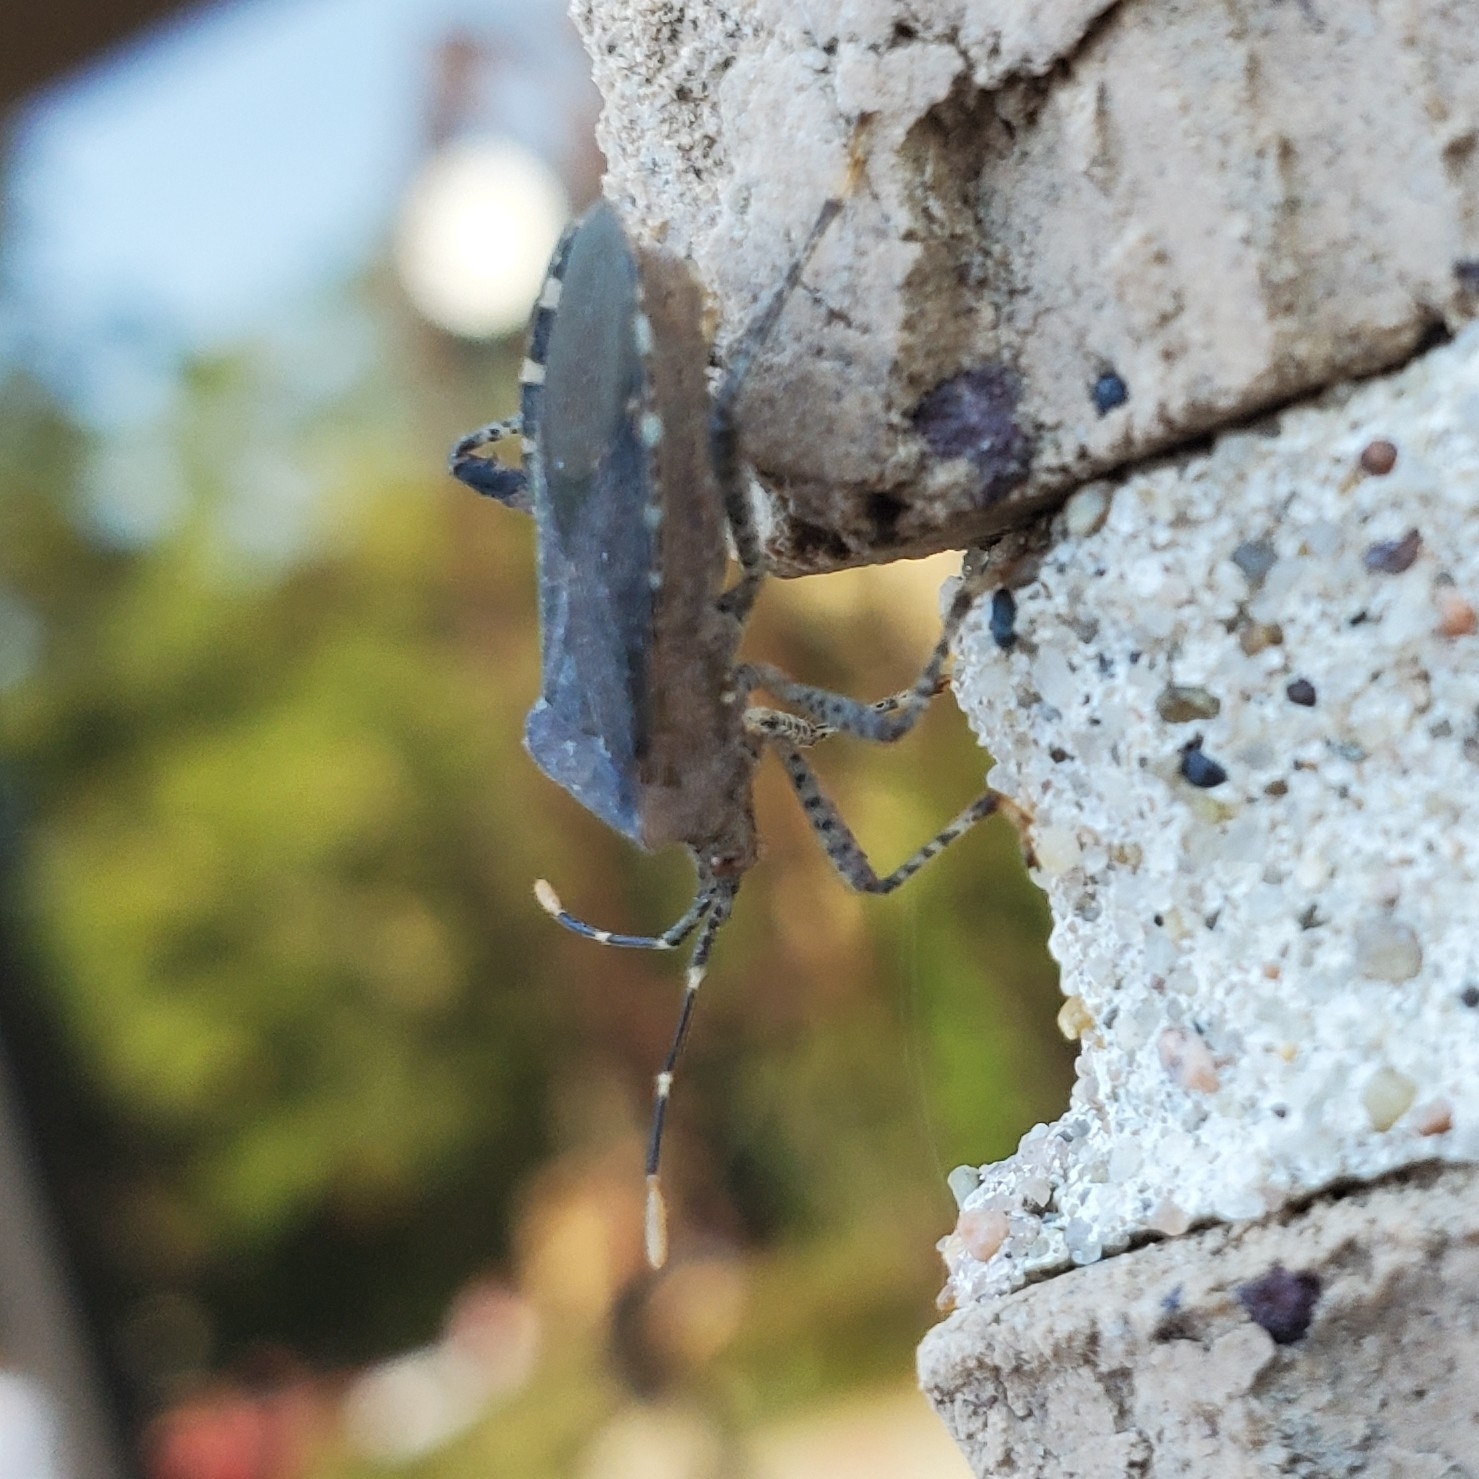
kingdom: Animalia
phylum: Arthropoda
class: Insecta
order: Hemiptera
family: Coreidae
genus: Anasa
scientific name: Anasa armigera
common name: Horned squash bug
